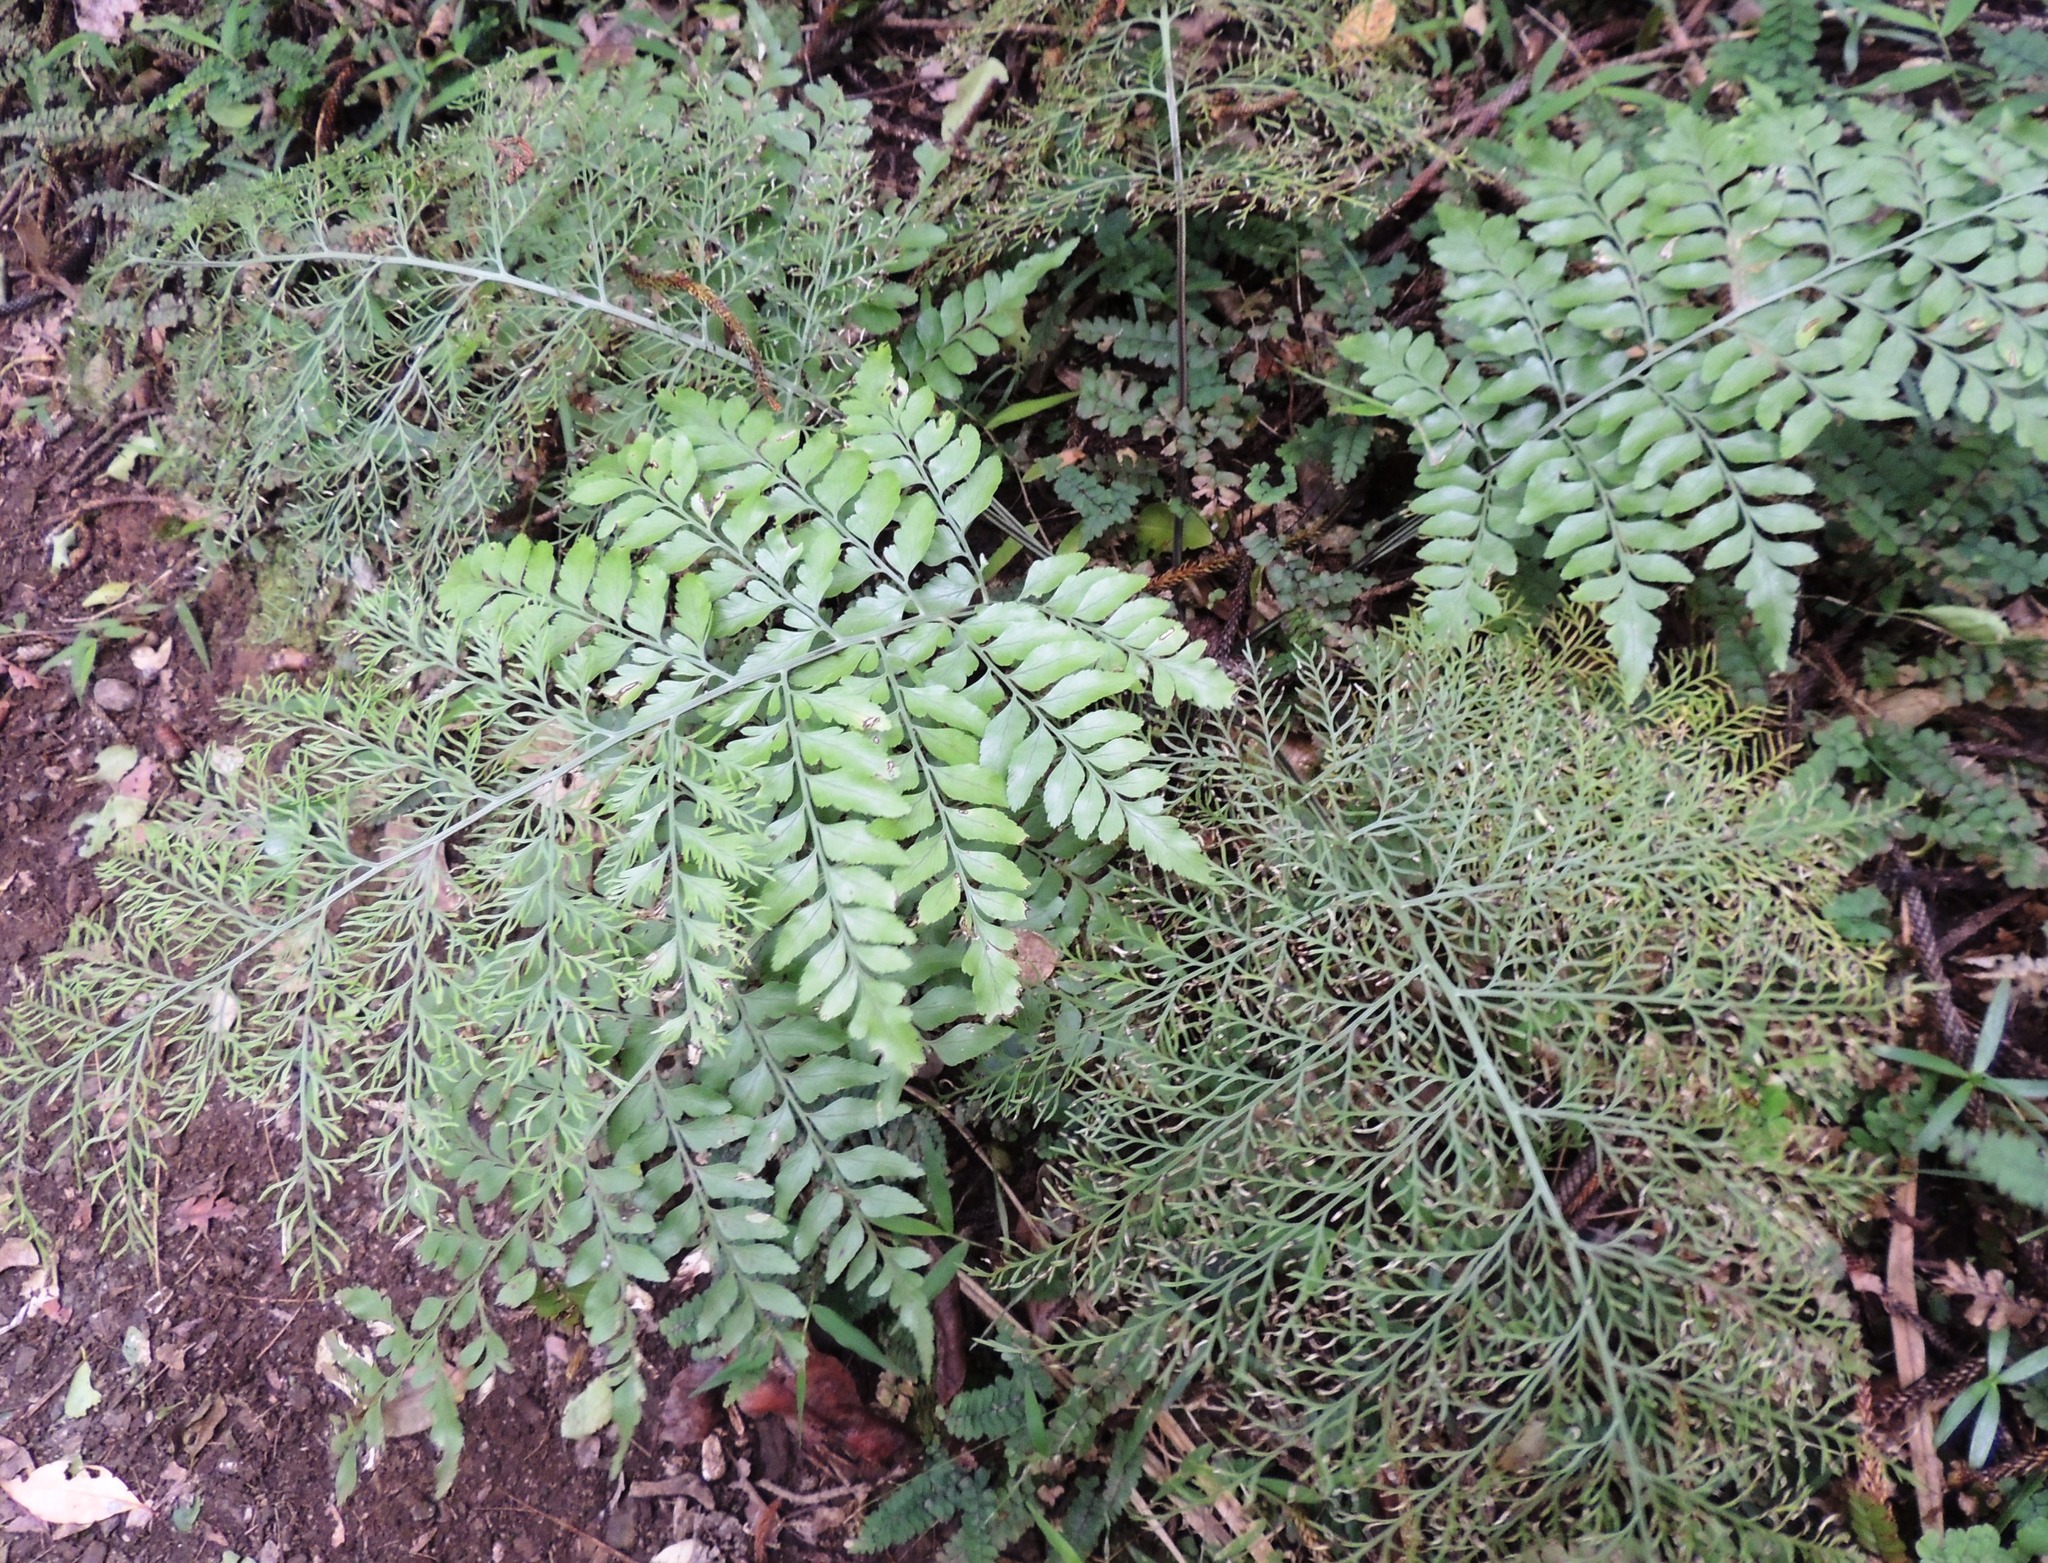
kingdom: Plantae
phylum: Tracheophyta
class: Polypodiopsida
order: Polypodiales
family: Aspleniaceae
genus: Asplenium
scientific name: Asplenium dimorphum
